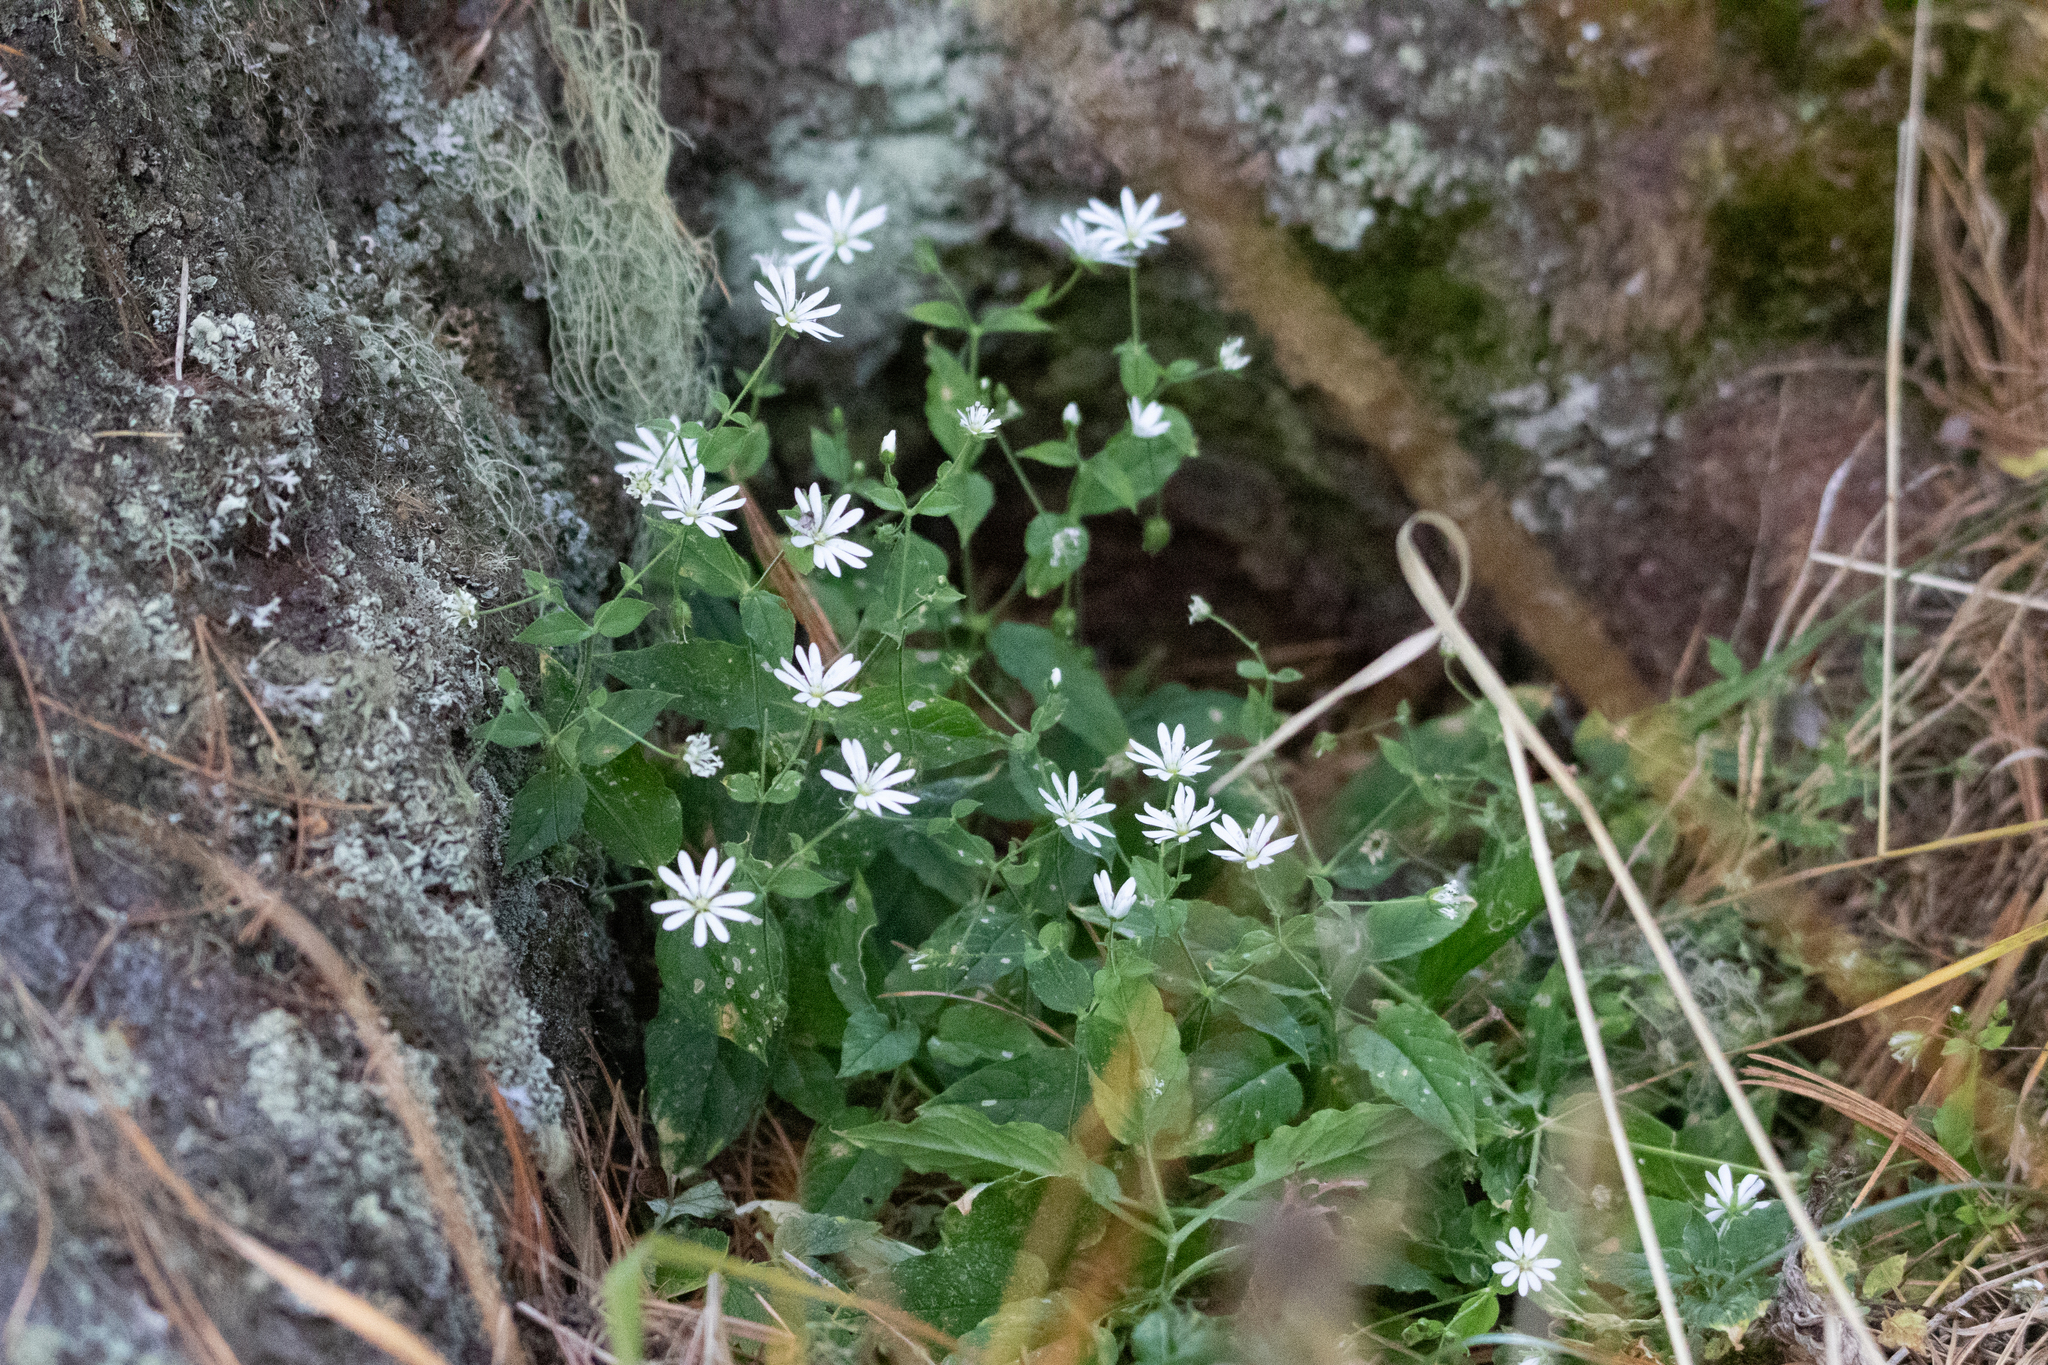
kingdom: Plantae
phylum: Tracheophyta
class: Magnoliopsida
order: Caryophyllales
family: Caryophyllaceae
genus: Stellaria
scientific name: Stellaria bungeana
